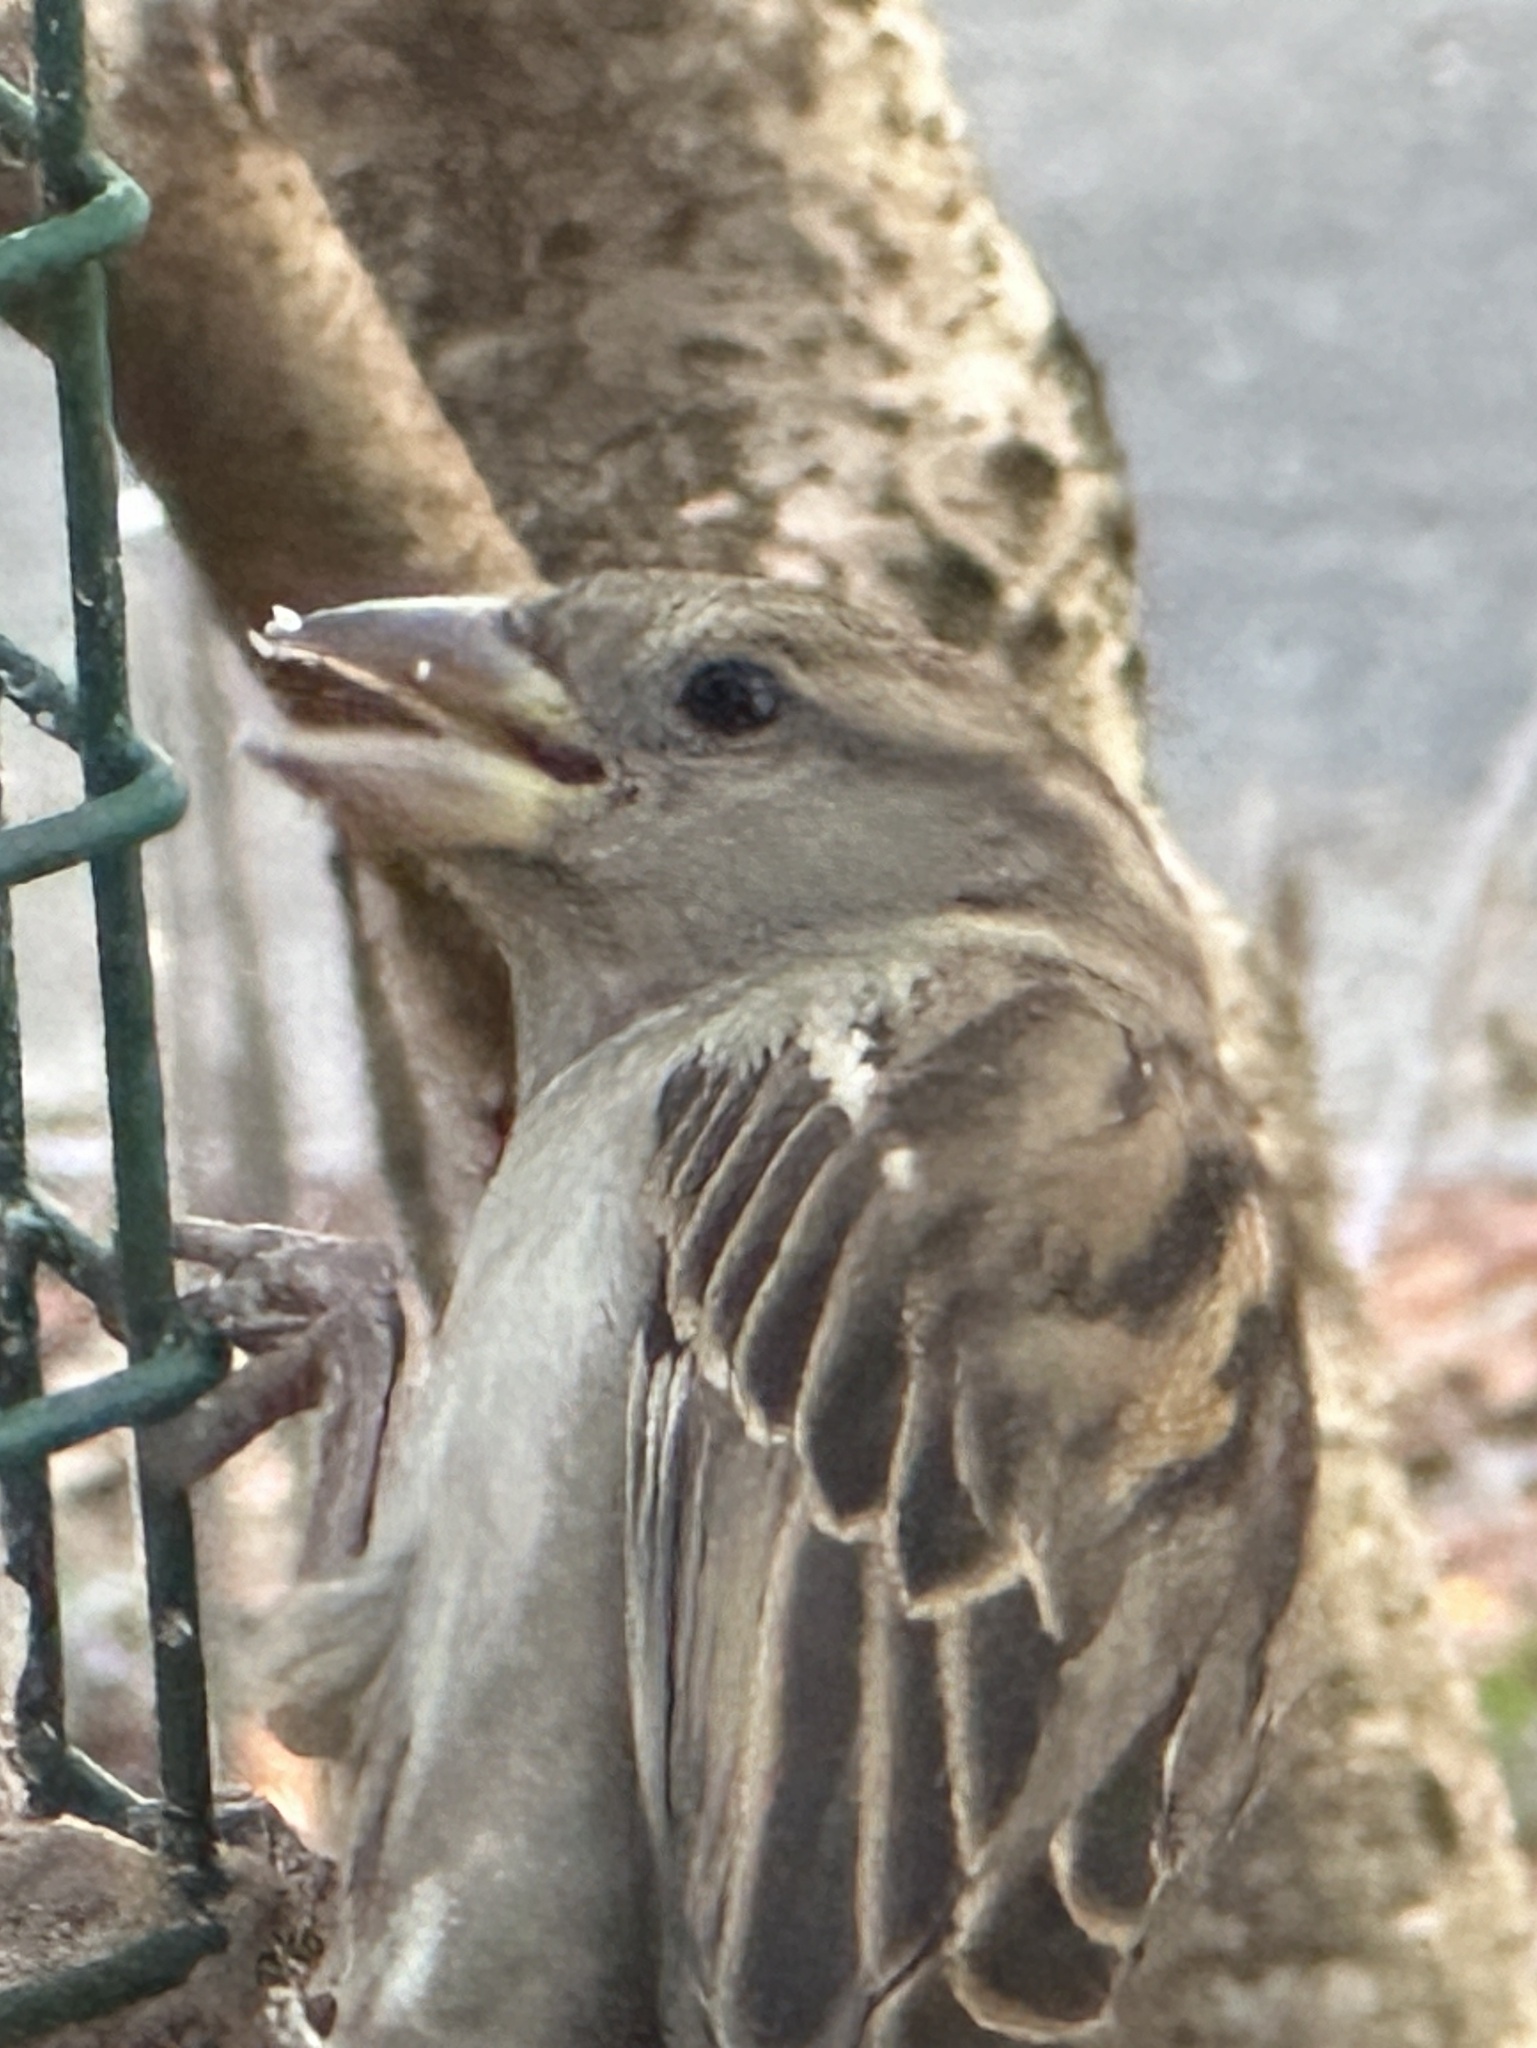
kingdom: Animalia
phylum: Chordata
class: Aves
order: Passeriformes
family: Passeridae
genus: Passer
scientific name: Passer domesticus
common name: House sparrow
